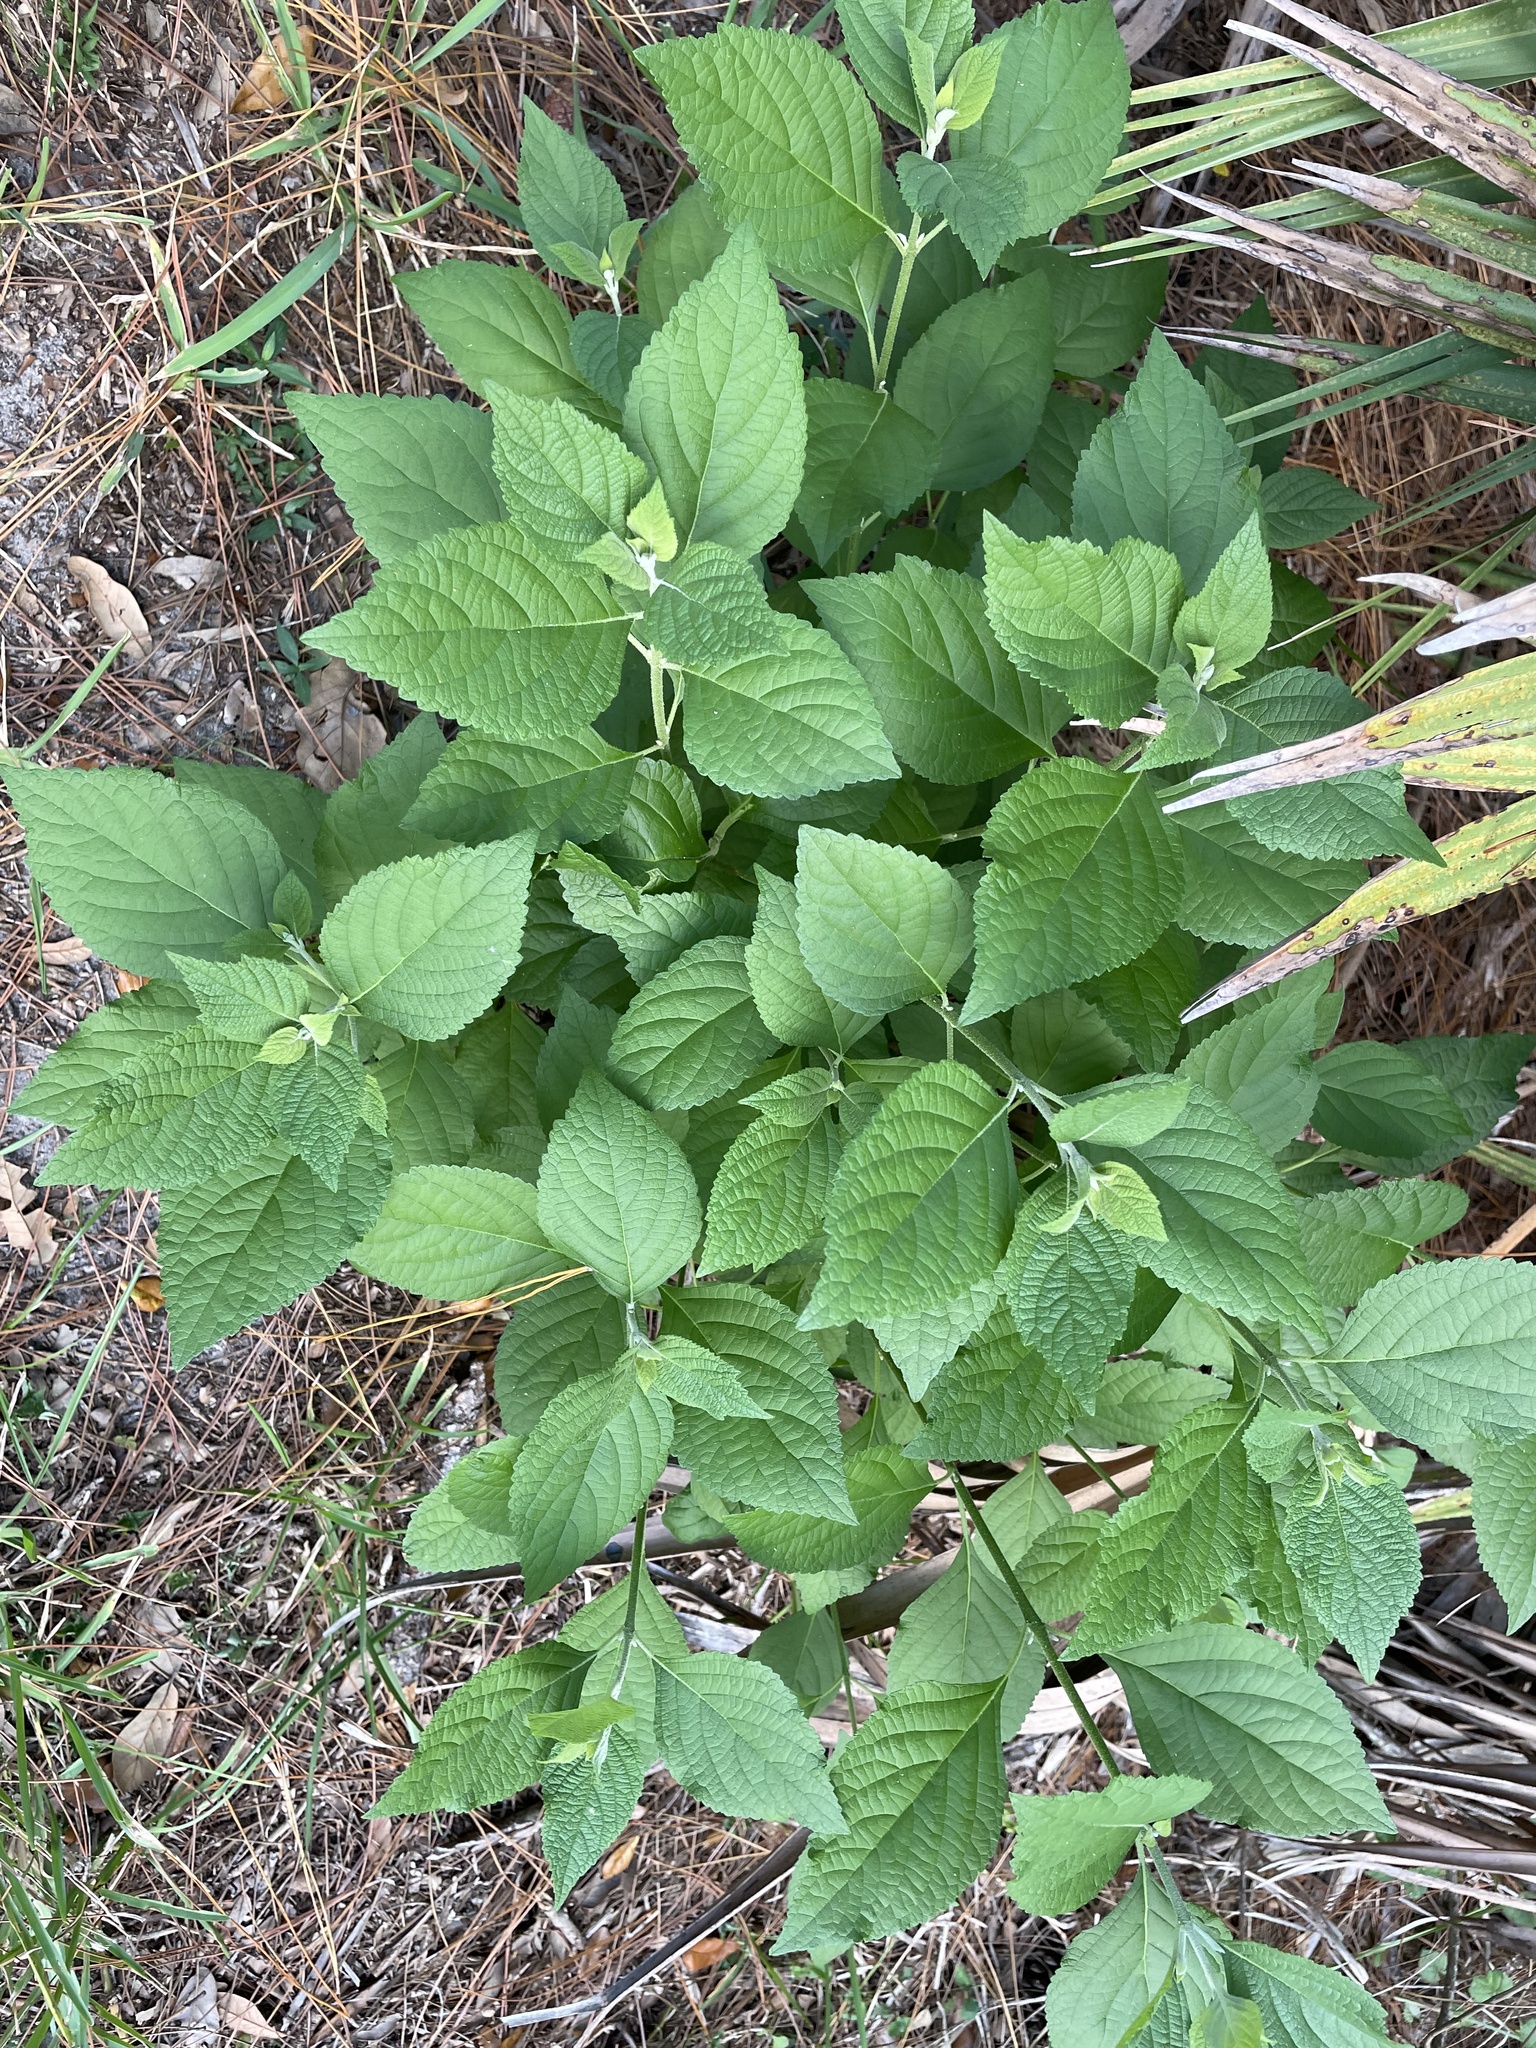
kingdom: Plantae
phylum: Tracheophyta
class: Magnoliopsida
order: Lamiales
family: Lamiaceae
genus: Callicarpa
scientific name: Callicarpa americana
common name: American beautyberry
